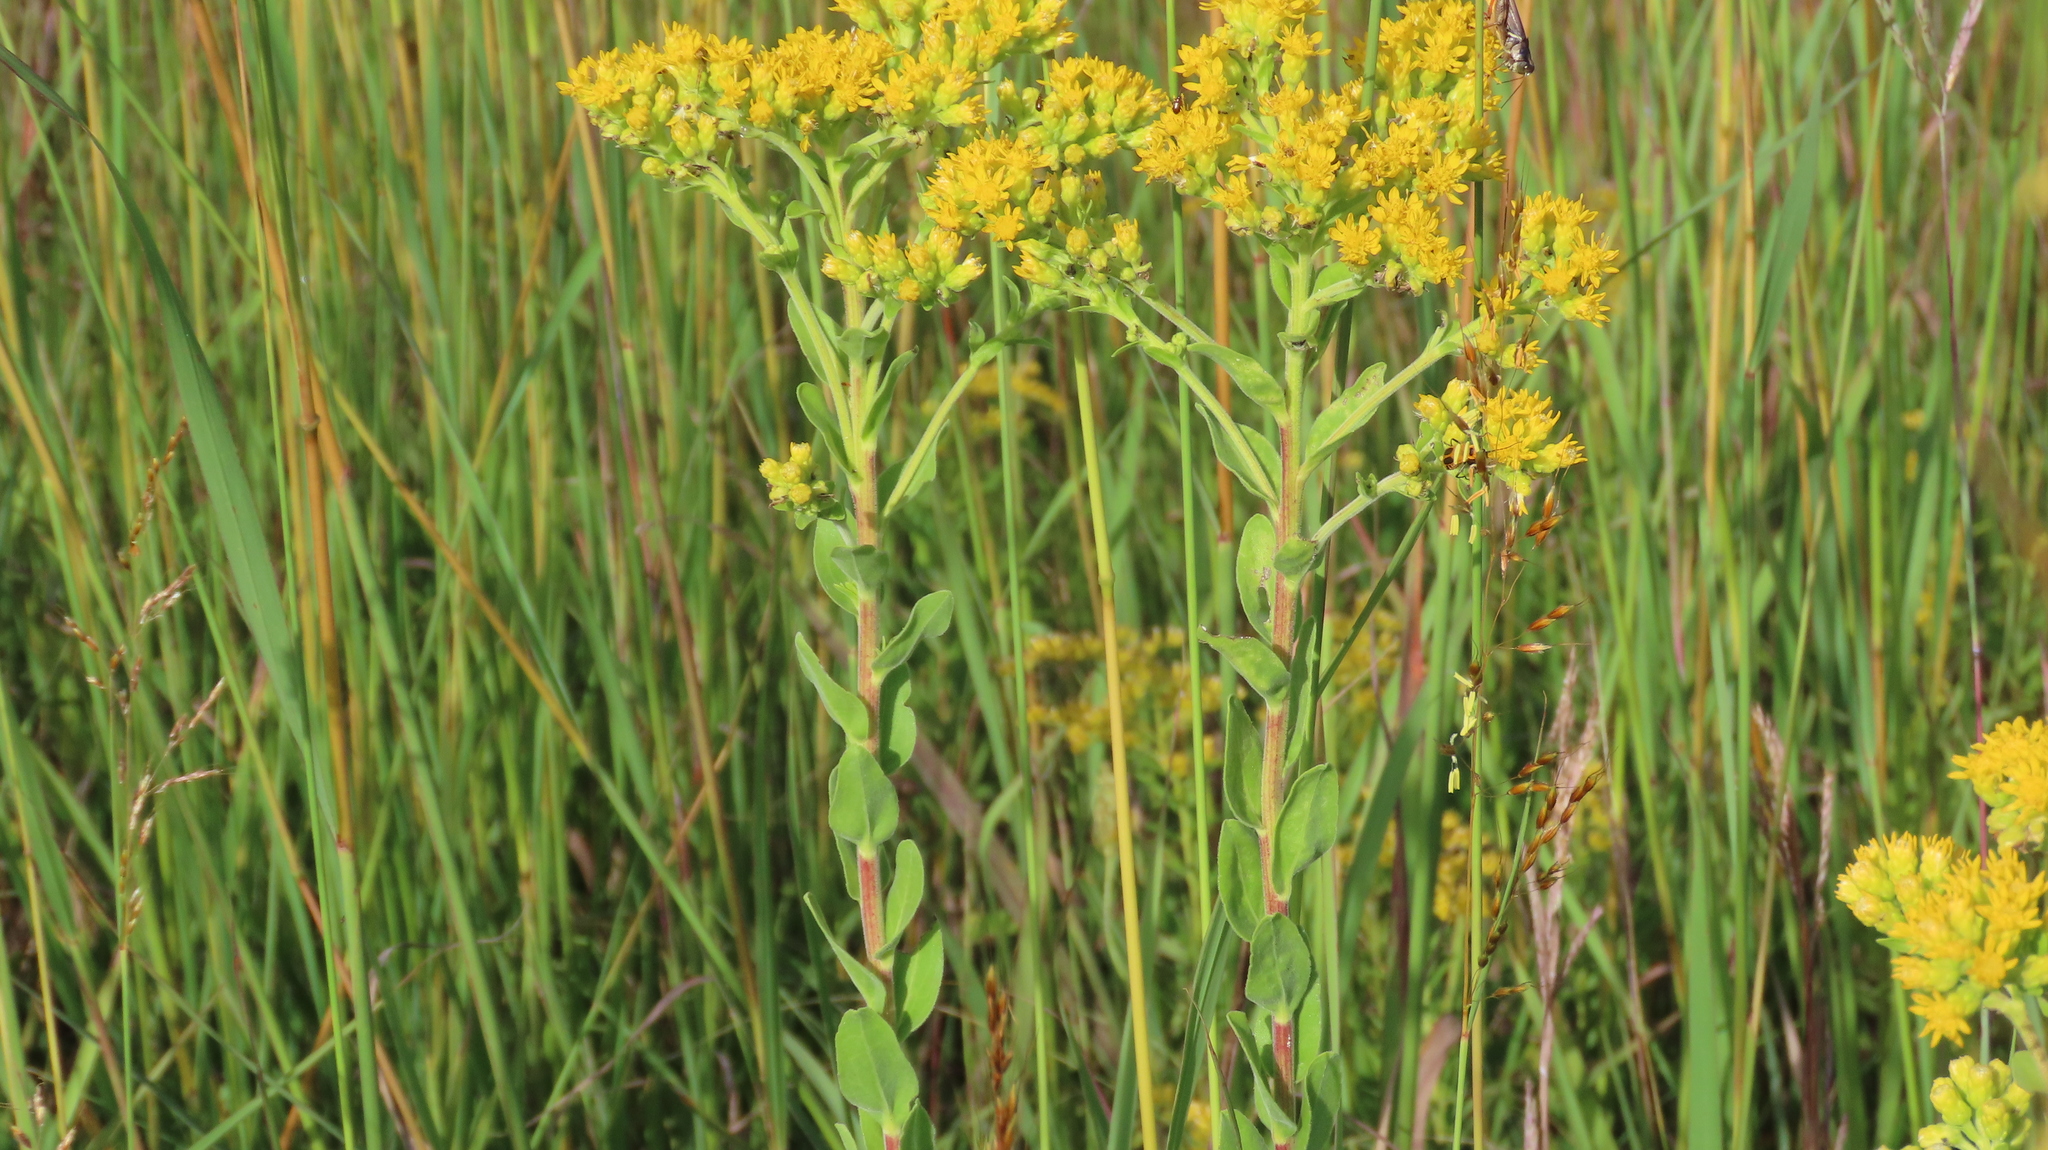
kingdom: Plantae
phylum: Tracheophyta
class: Magnoliopsida
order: Asterales
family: Asteraceae
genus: Solidago
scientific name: Solidago rigida
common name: Rigid goldenrod
